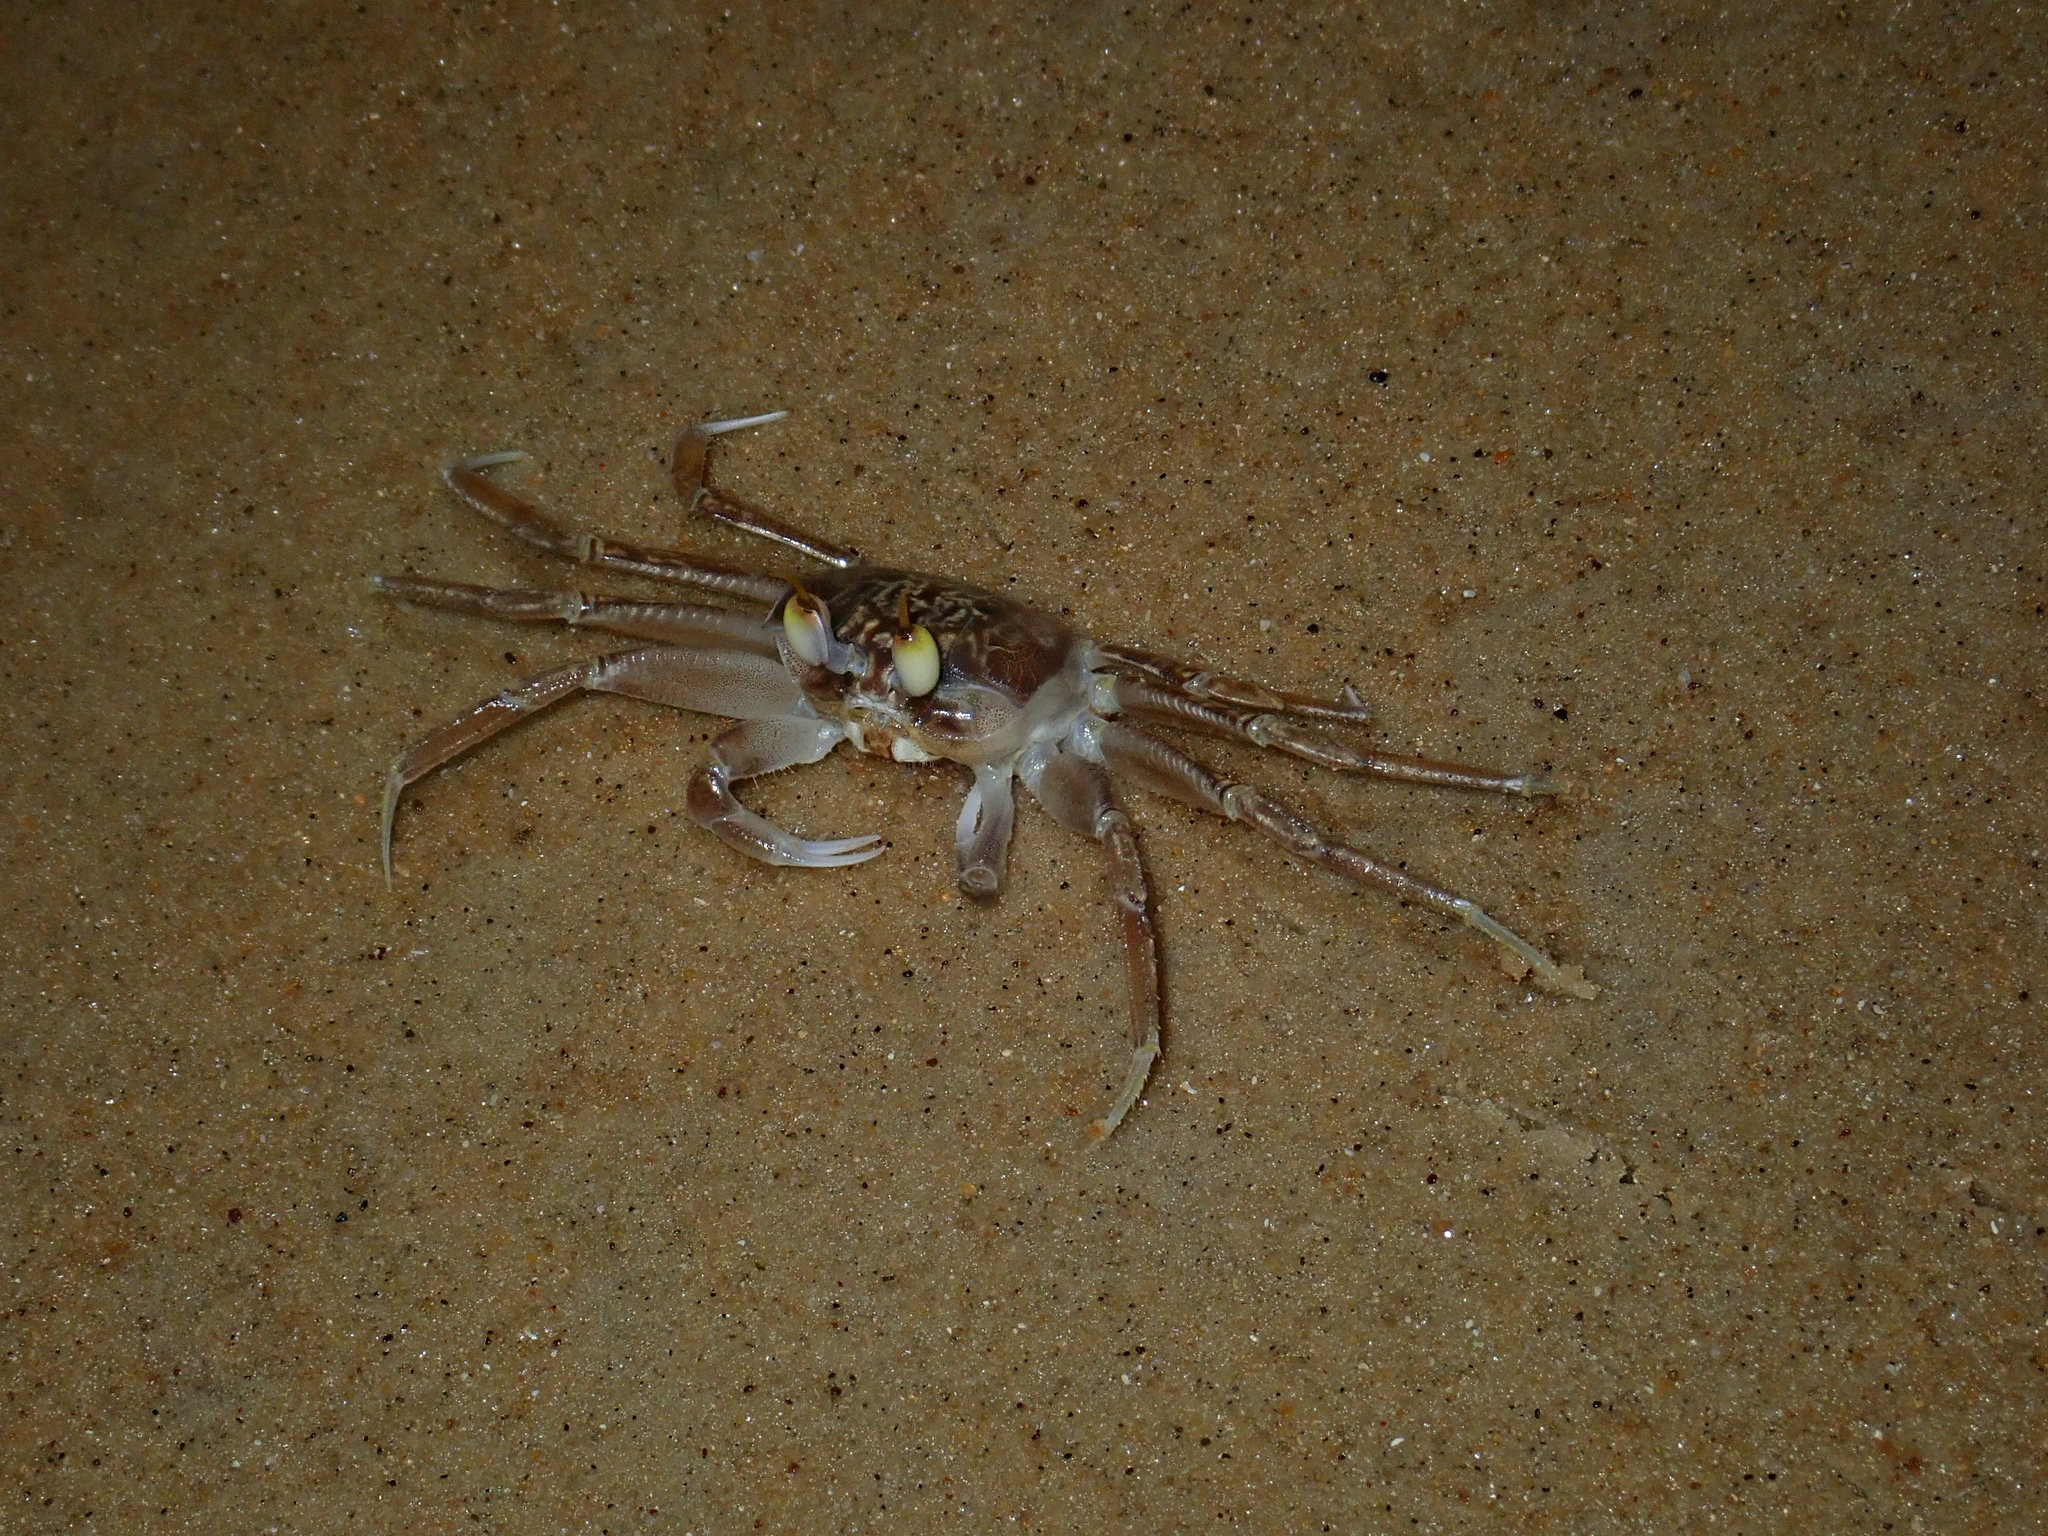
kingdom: Animalia
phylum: Arthropoda
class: Malacostraca
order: Decapoda
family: Ocypodidae
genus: Ocypode
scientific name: Ocypode cursor
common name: Tufted ghost crab
